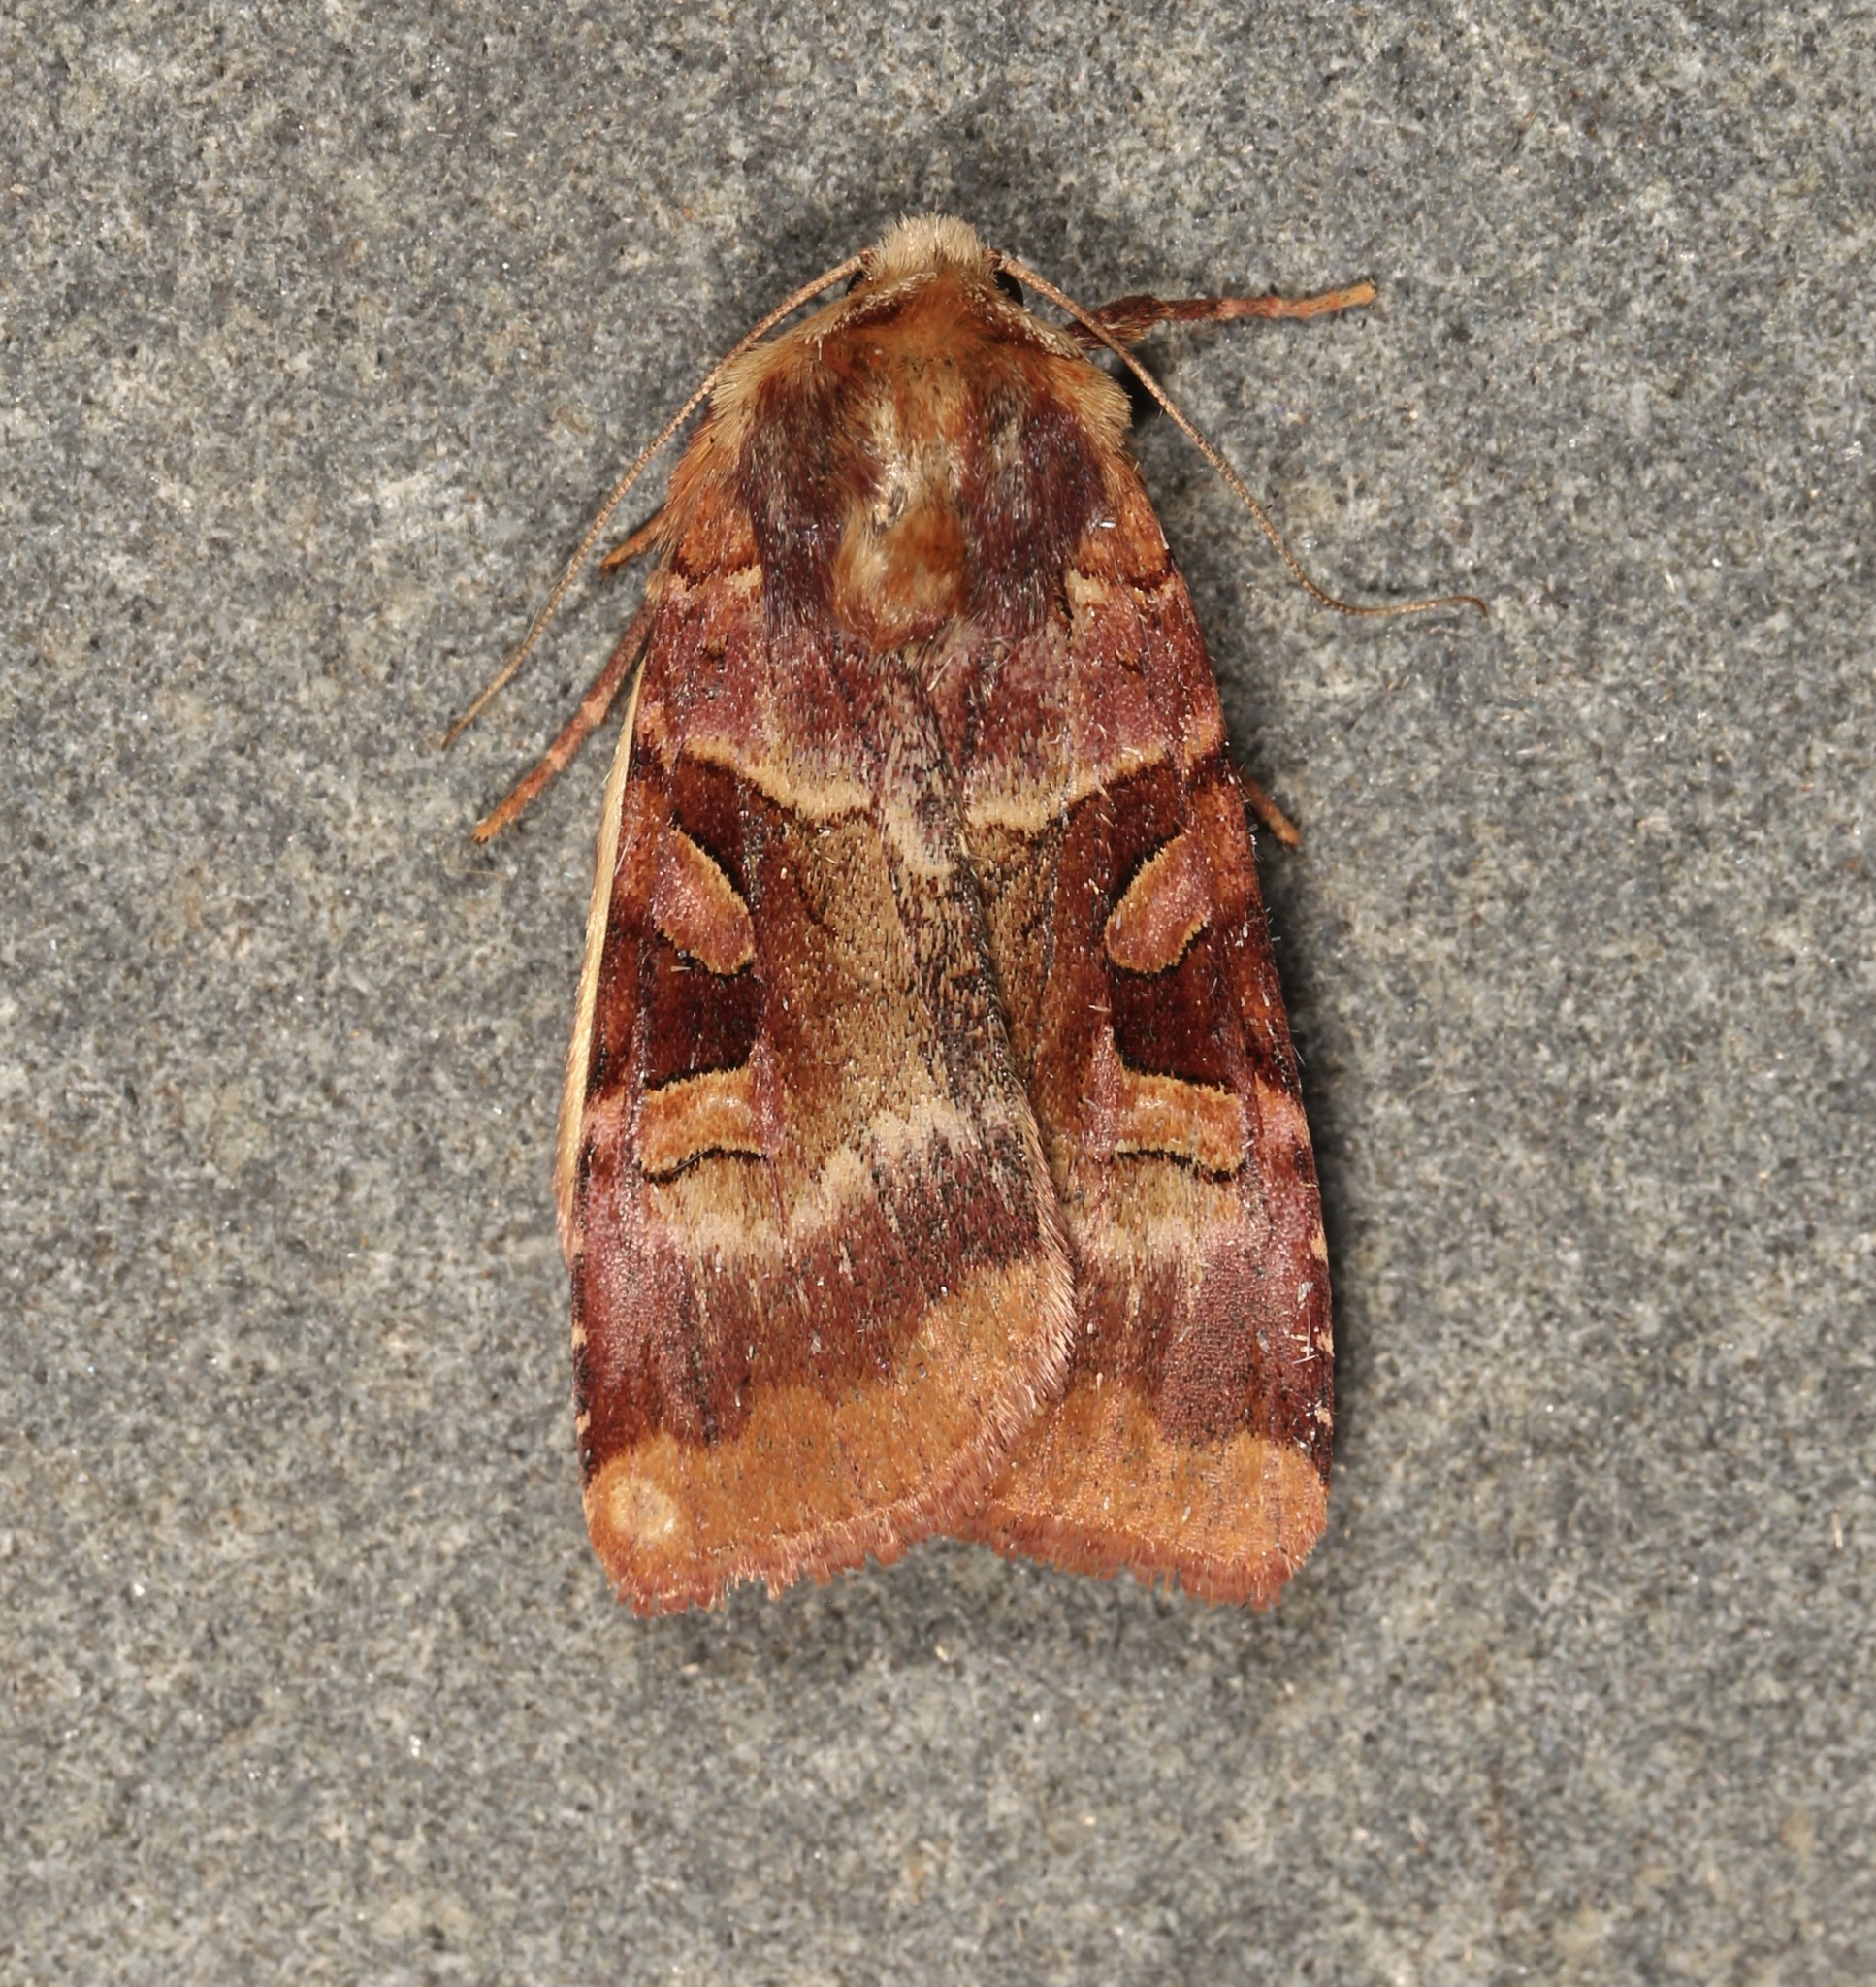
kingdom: Animalia
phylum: Arthropoda
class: Insecta
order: Lepidoptera
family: Noctuidae
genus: Xestia
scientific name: Xestia oblata
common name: Rosy dart
